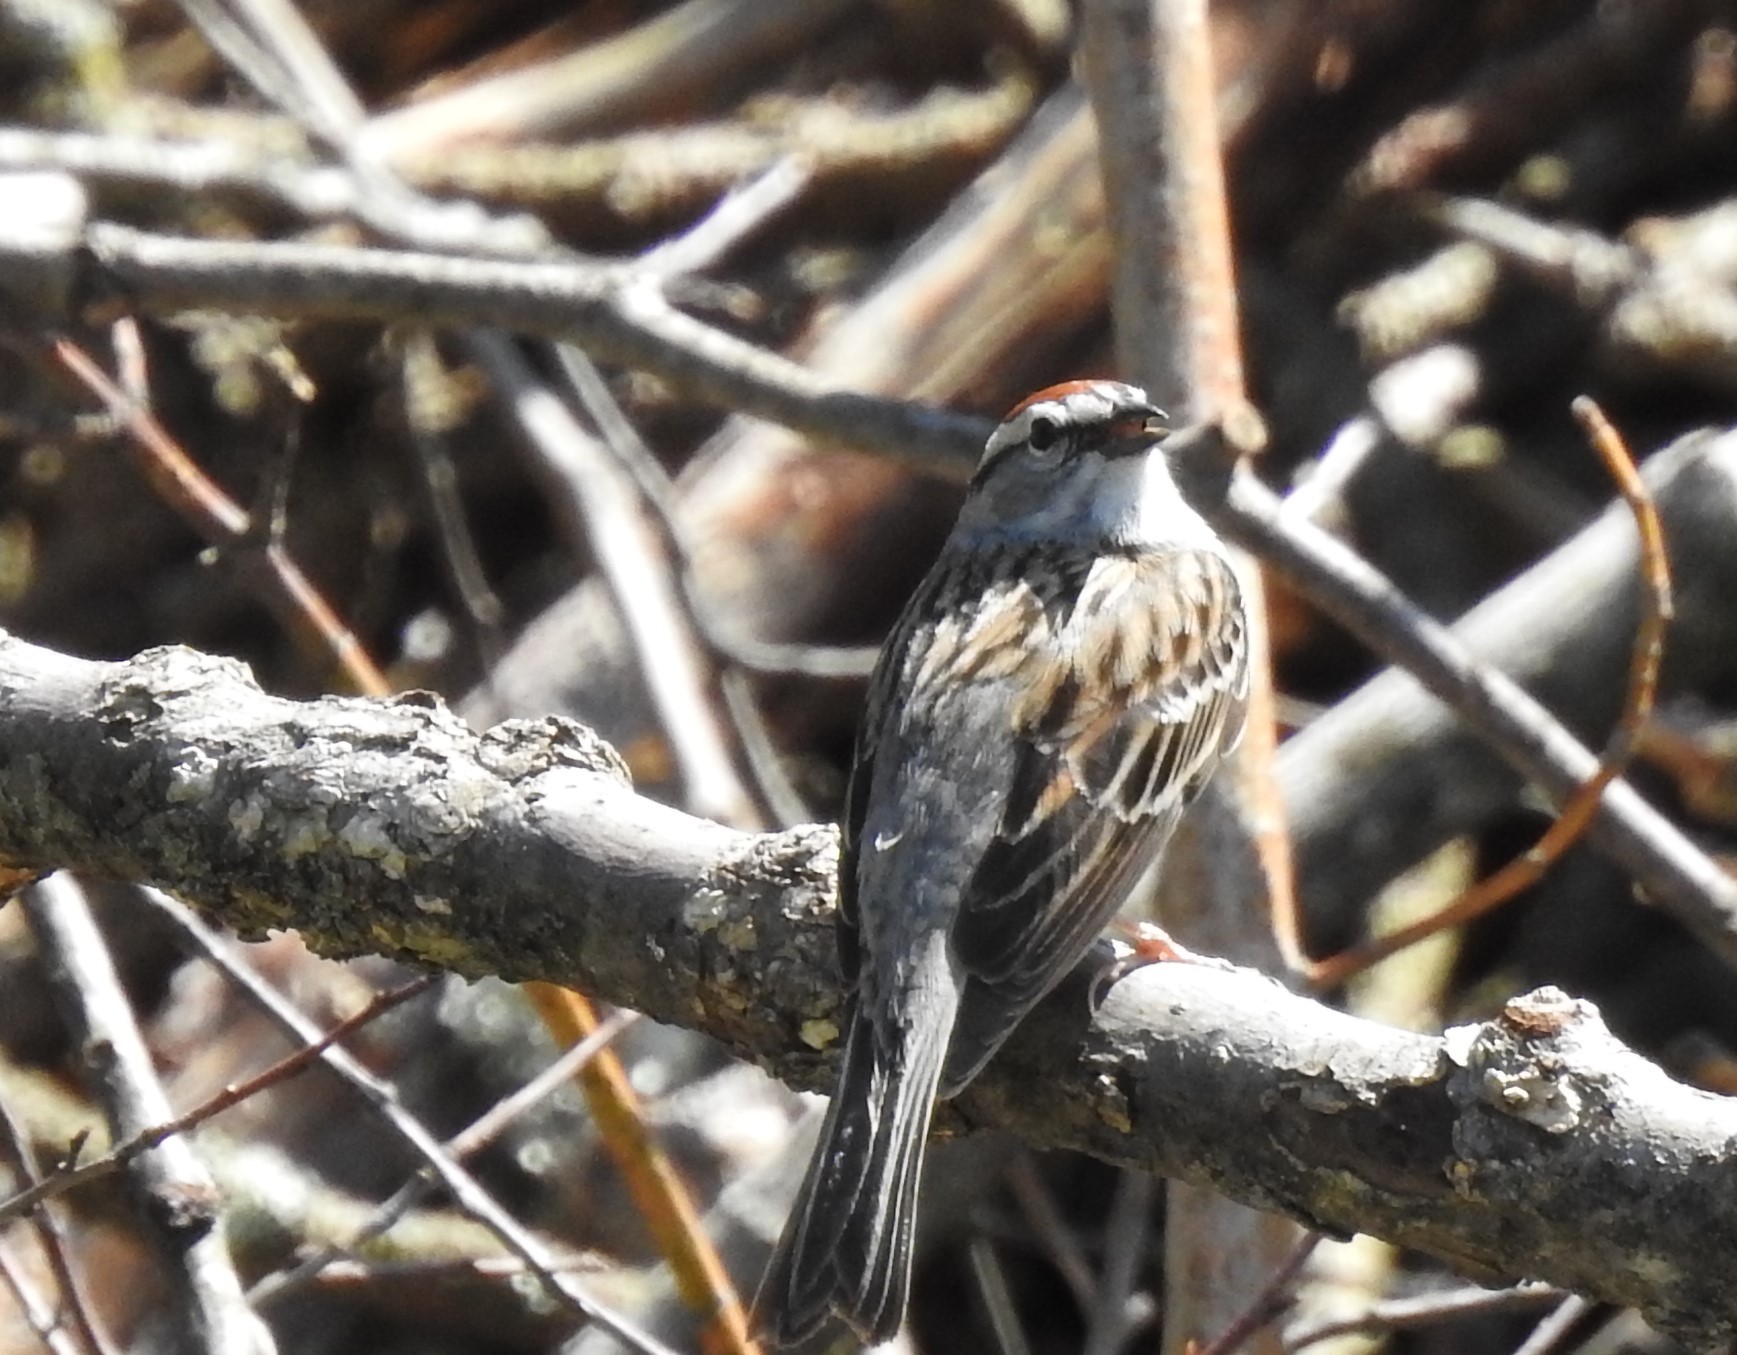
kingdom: Animalia
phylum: Chordata
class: Aves
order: Passeriformes
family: Passerellidae
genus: Spizella
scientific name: Spizella passerina
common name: Chipping sparrow
